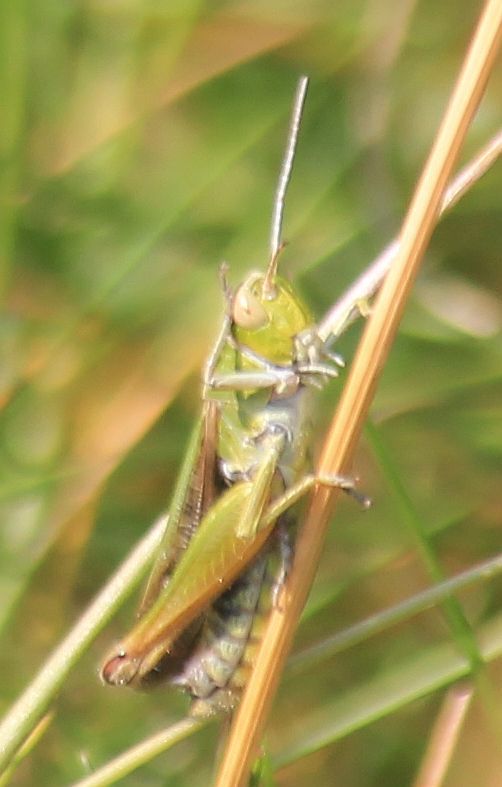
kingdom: Animalia
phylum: Arthropoda
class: Insecta
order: Orthoptera
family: Acrididae
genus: Omocestus
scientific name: Omocestus viridulus
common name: Common green grasshopper
